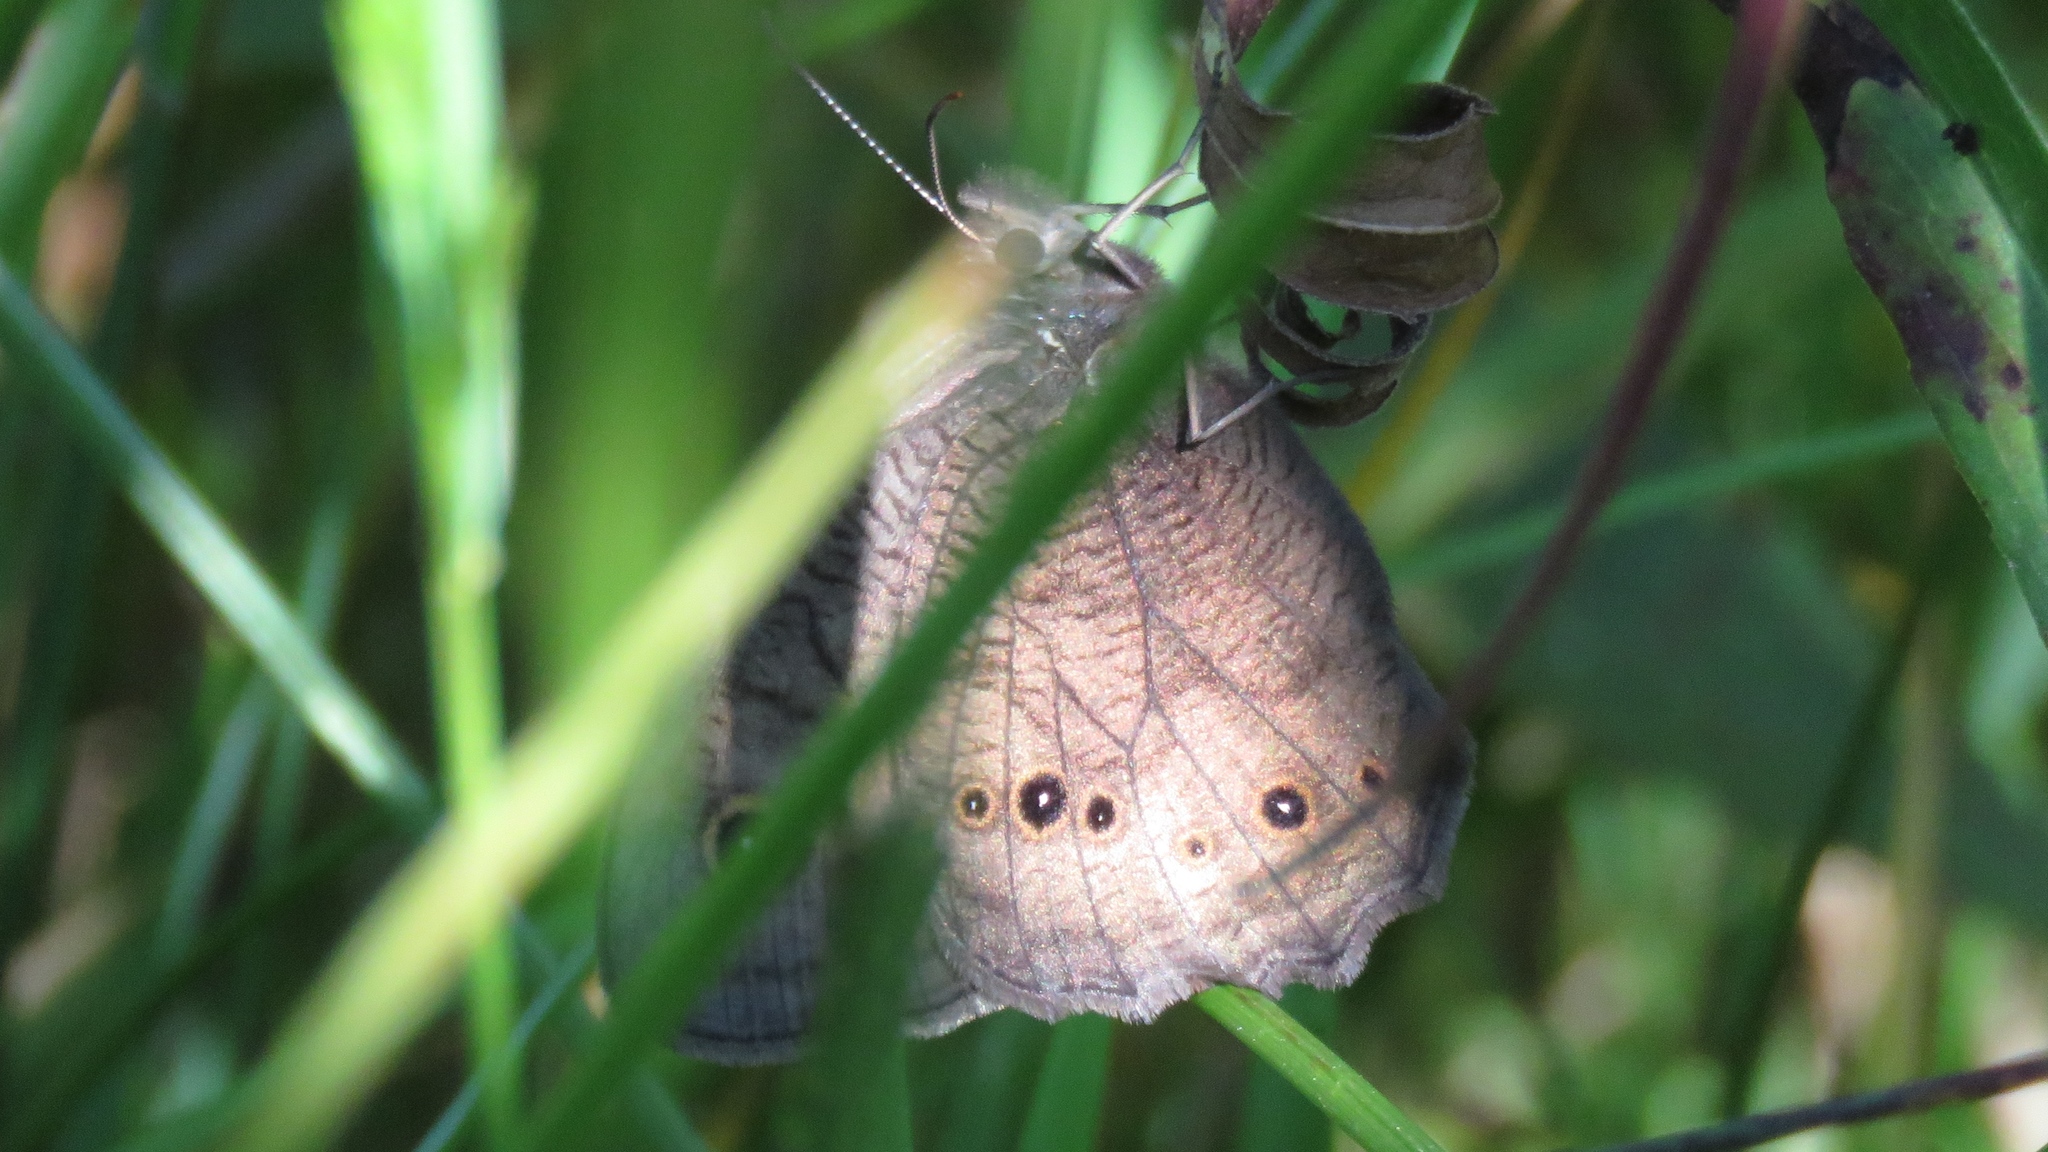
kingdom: Animalia
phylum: Arthropoda
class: Insecta
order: Lepidoptera
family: Nymphalidae
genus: Cercyonis
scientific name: Cercyonis pegala
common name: Common wood-nymph
